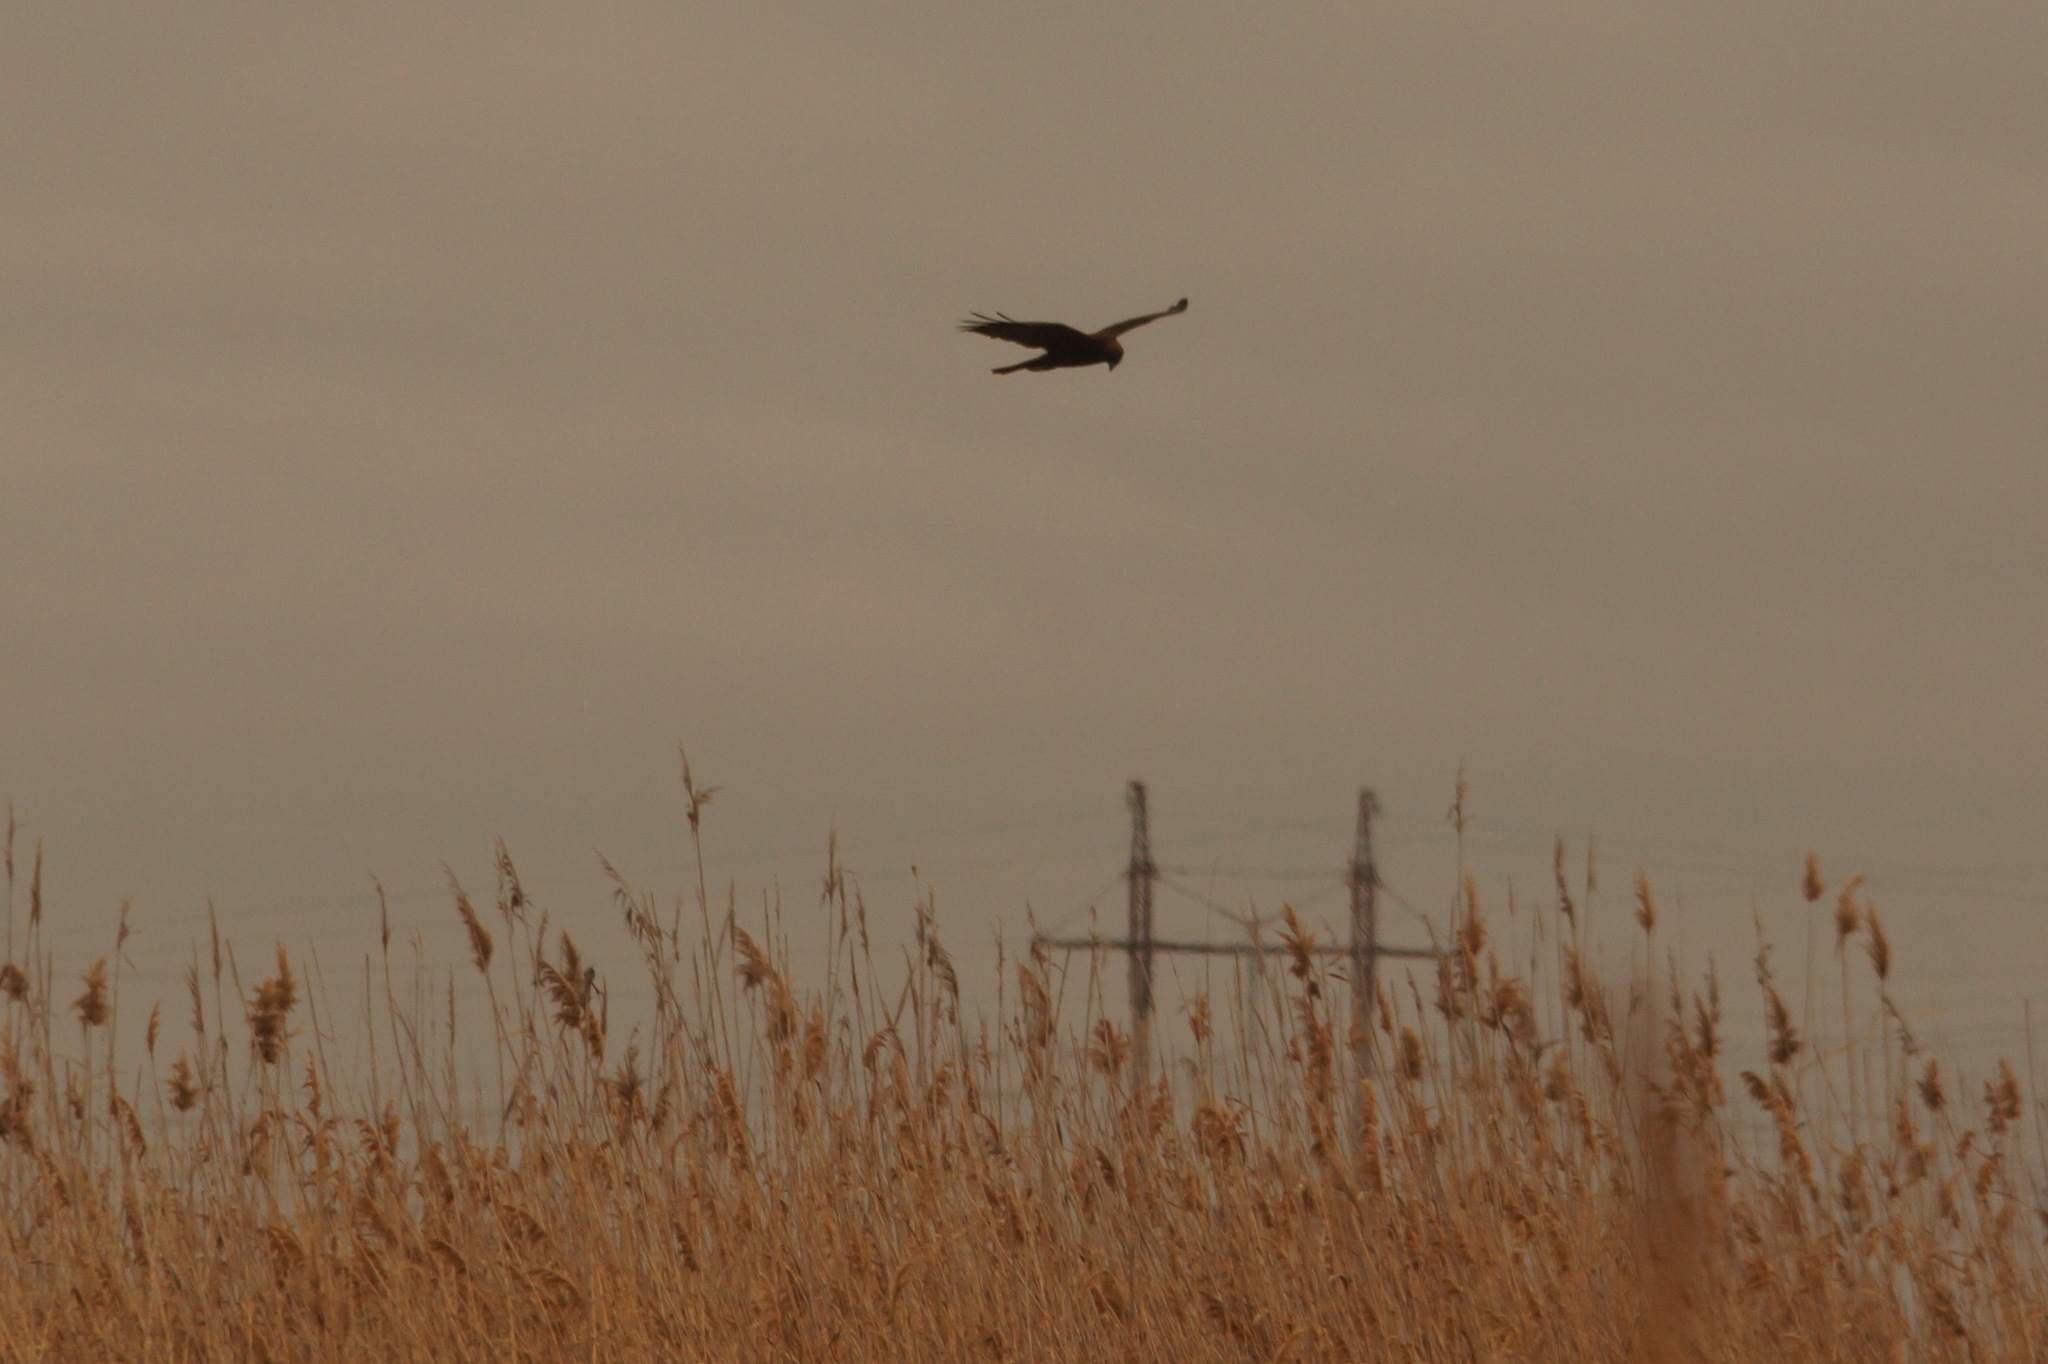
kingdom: Animalia
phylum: Chordata
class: Aves
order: Accipitriformes
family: Accipitridae
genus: Circus
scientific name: Circus aeruginosus
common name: Western marsh harrier
